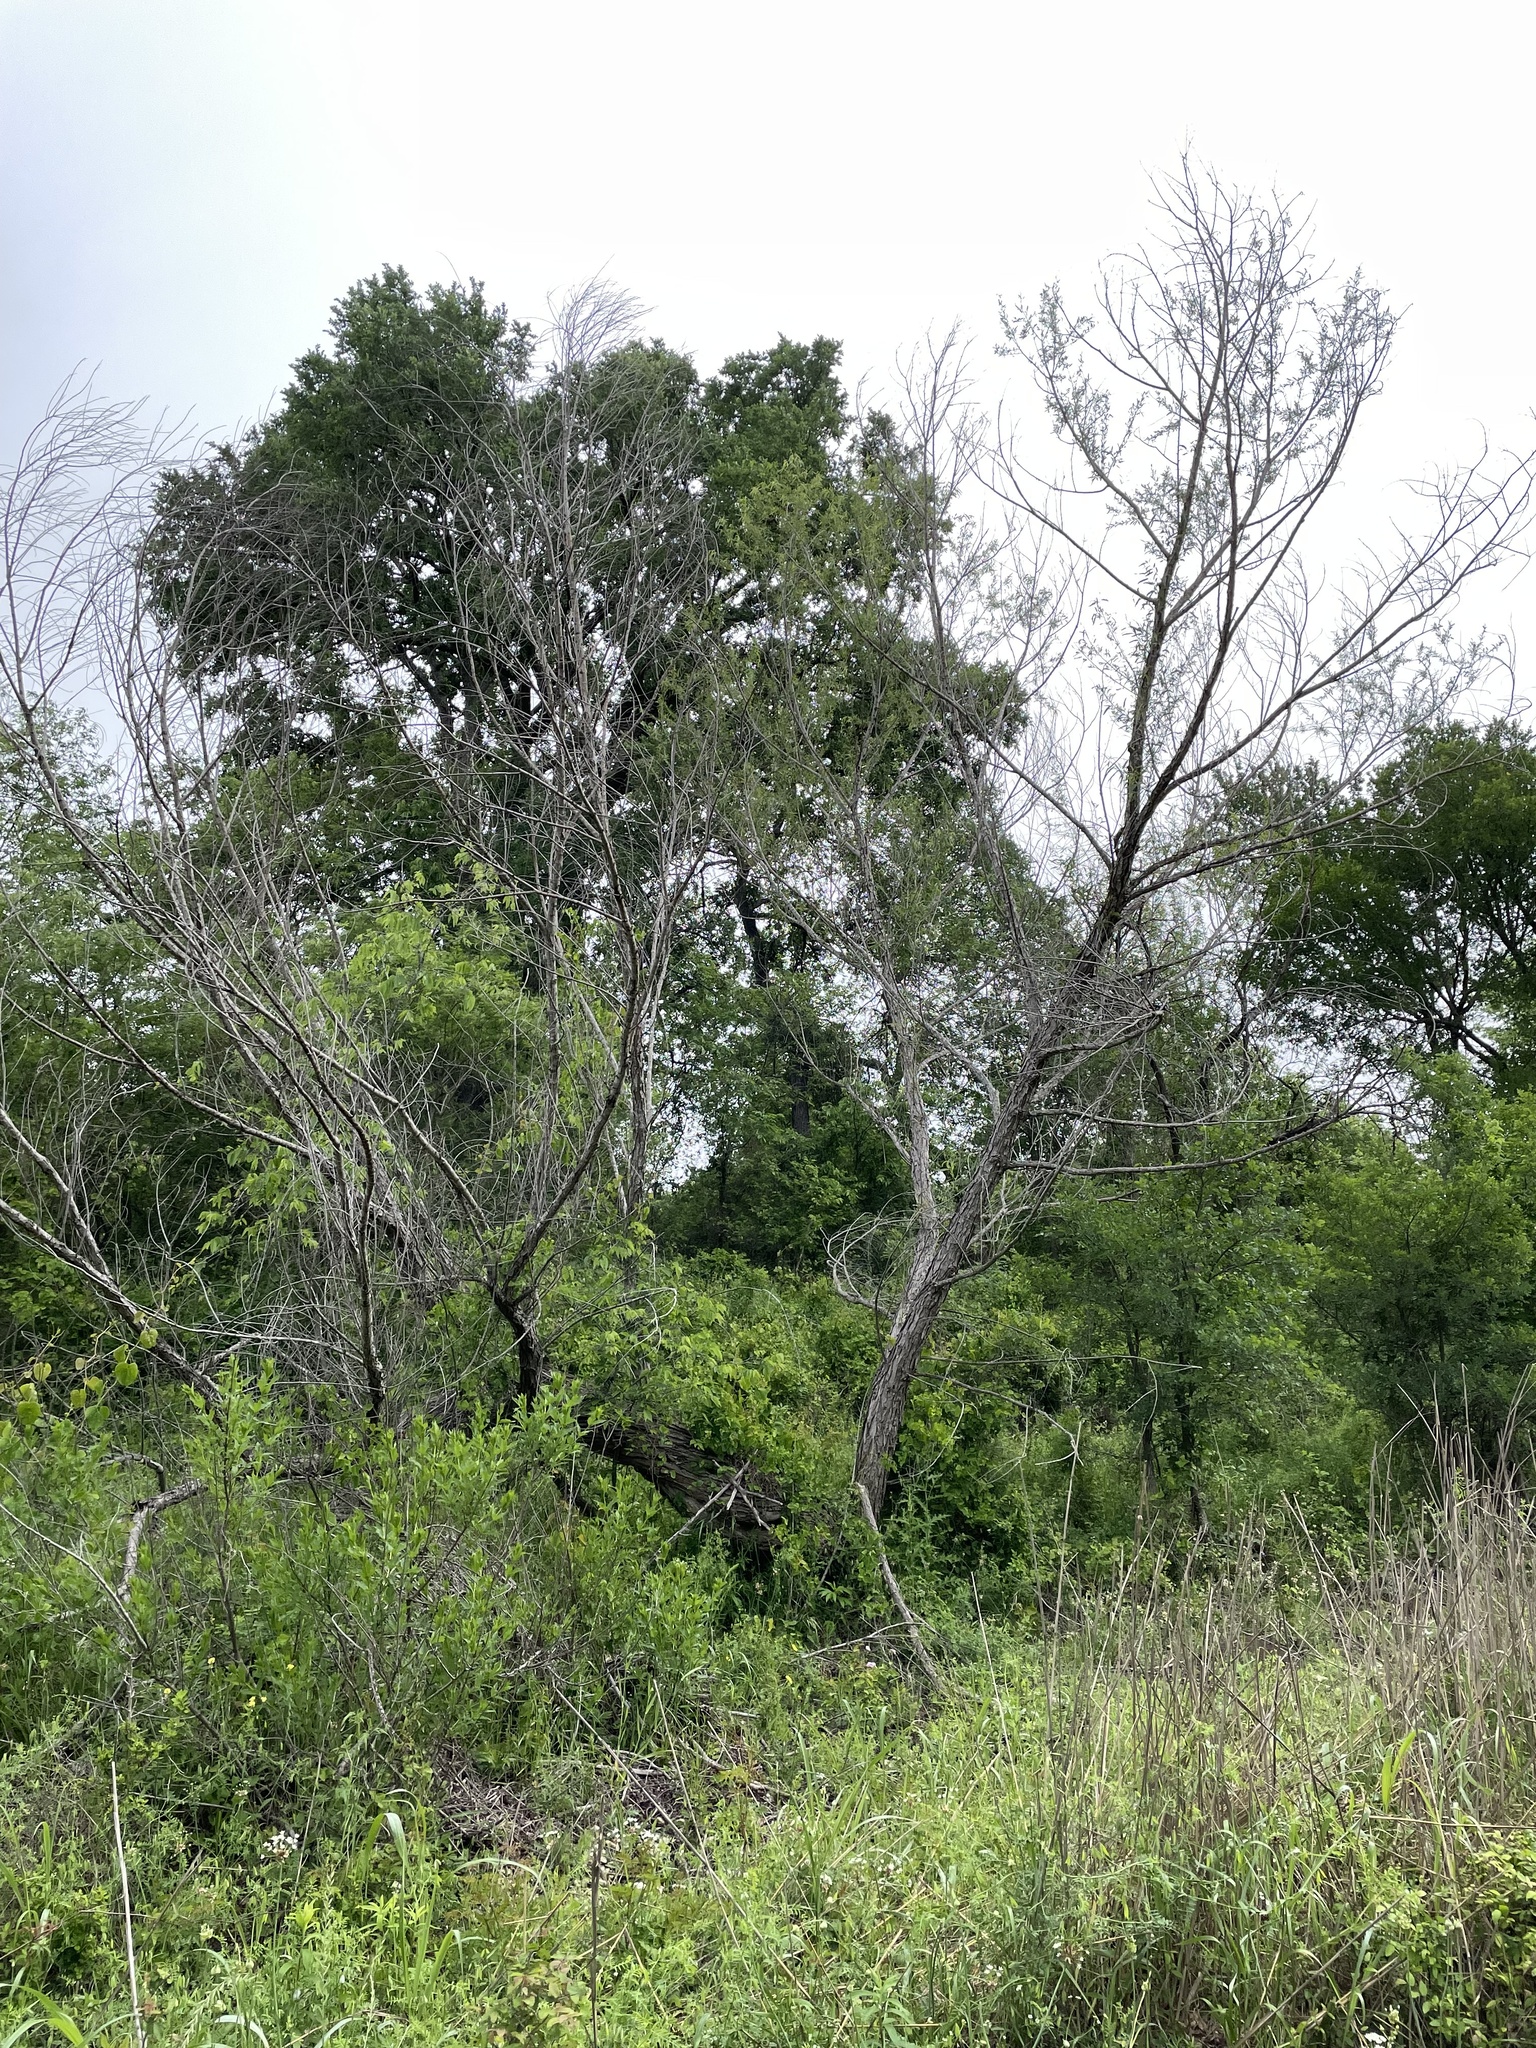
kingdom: Plantae
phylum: Tracheophyta
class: Magnoliopsida
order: Malpighiales
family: Salicaceae
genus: Salix
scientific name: Salix nigra
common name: Black willow
